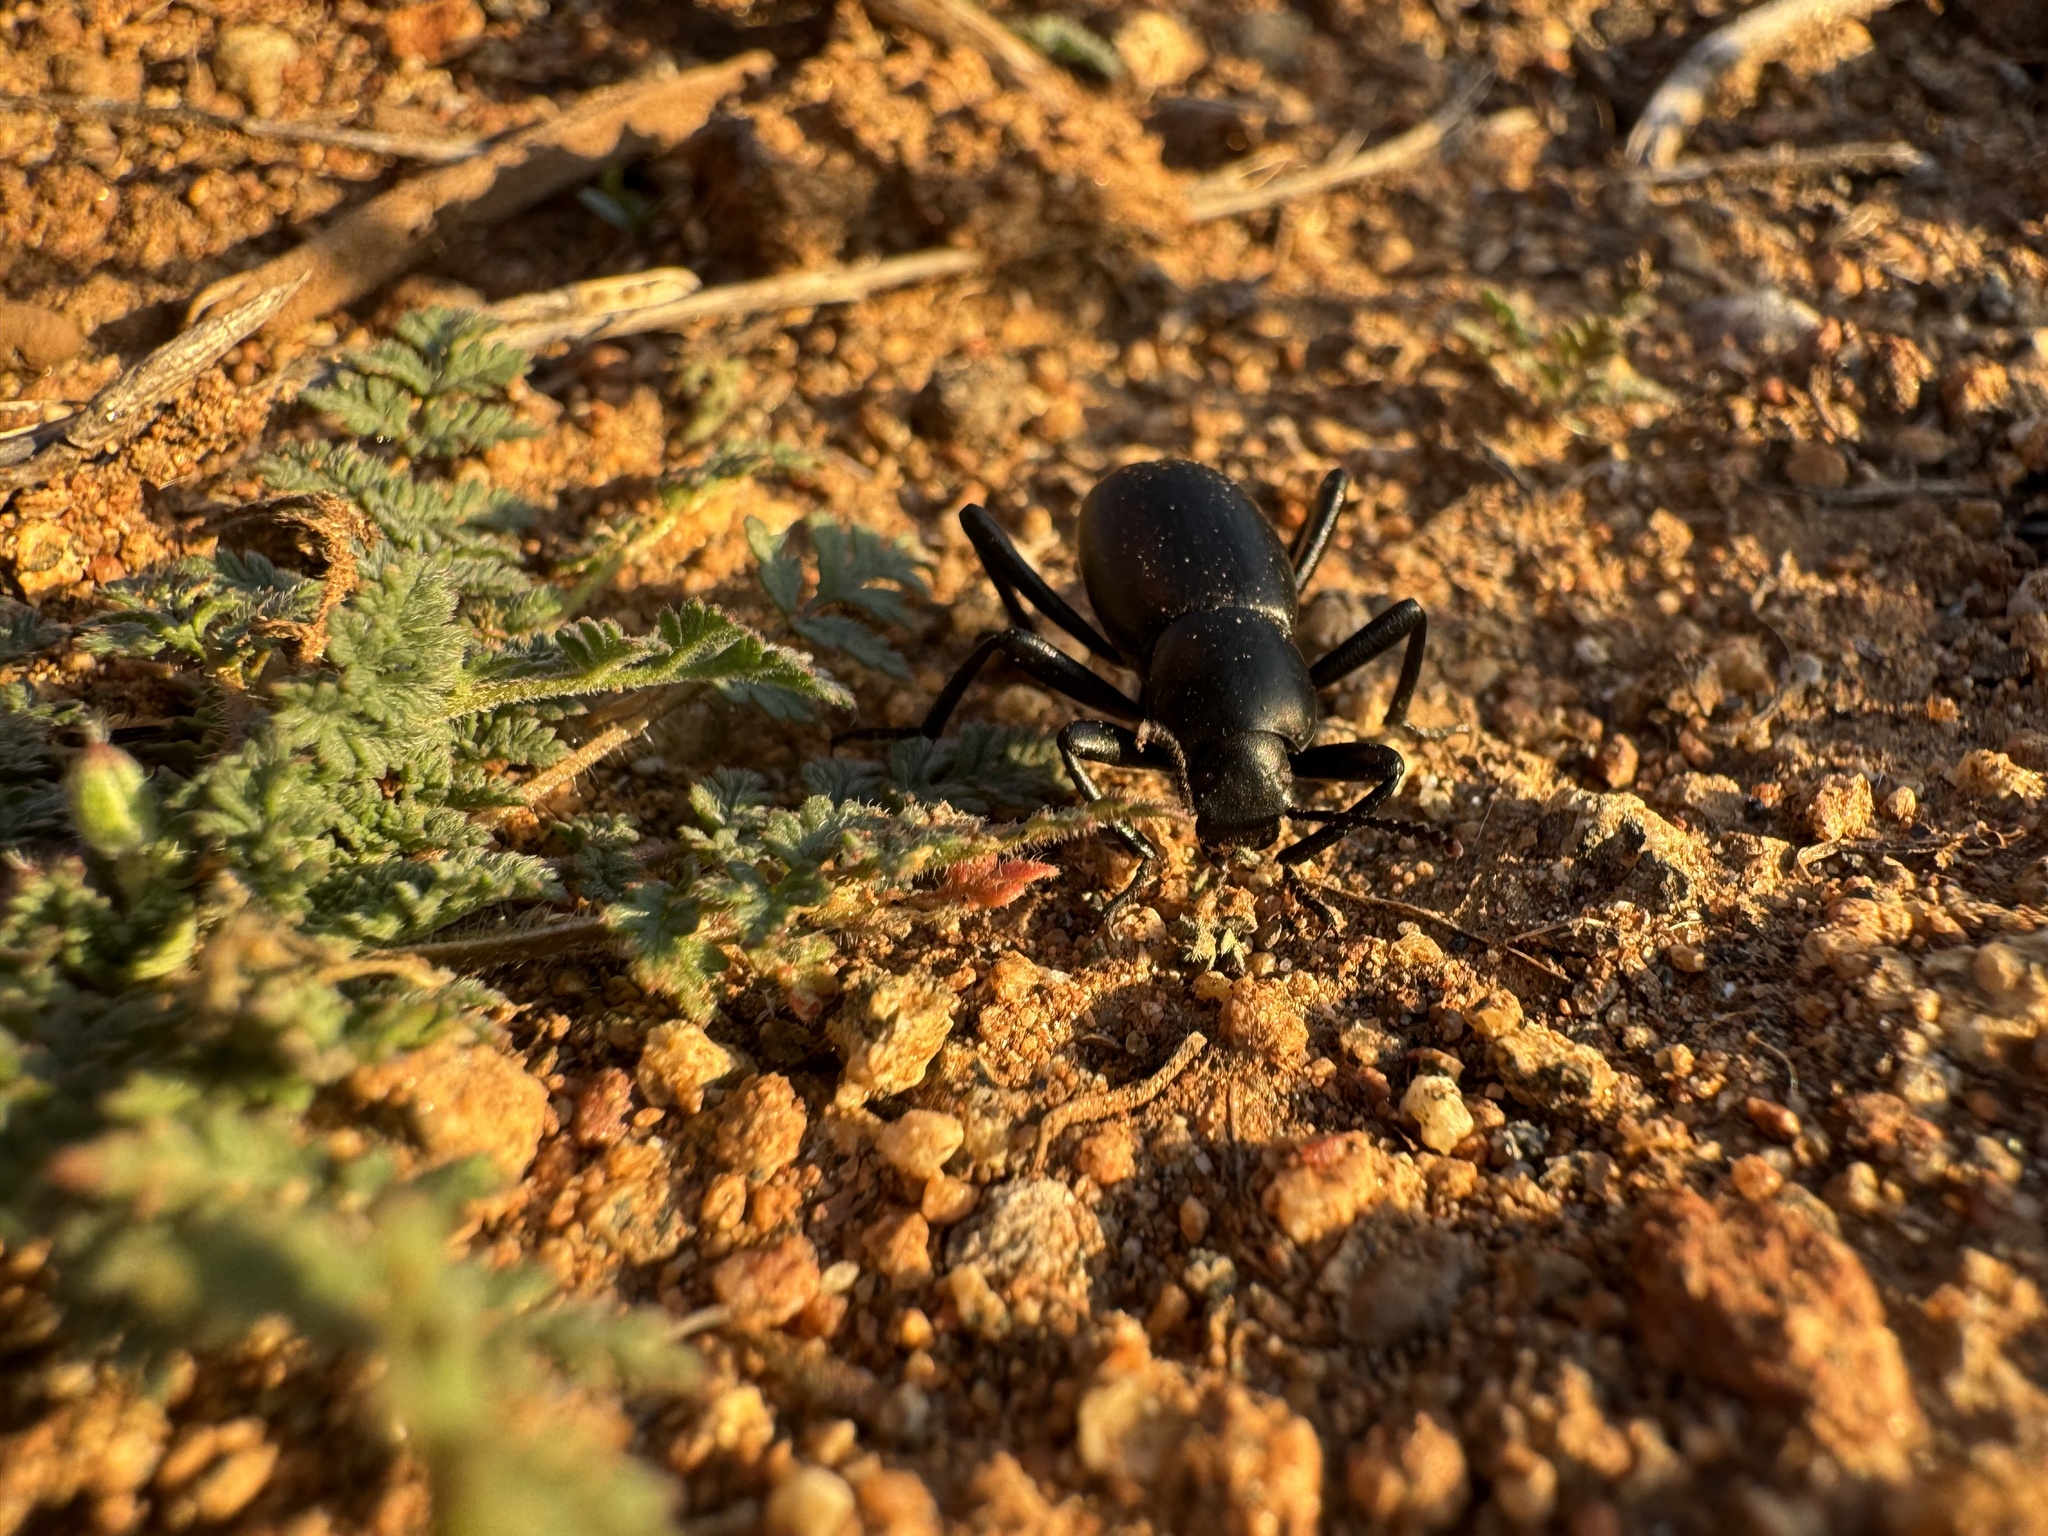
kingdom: Animalia
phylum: Arthropoda
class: Insecta
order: Coleoptera
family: Tenebrionidae
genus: Eleodes
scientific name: Eleodes carbonaria
